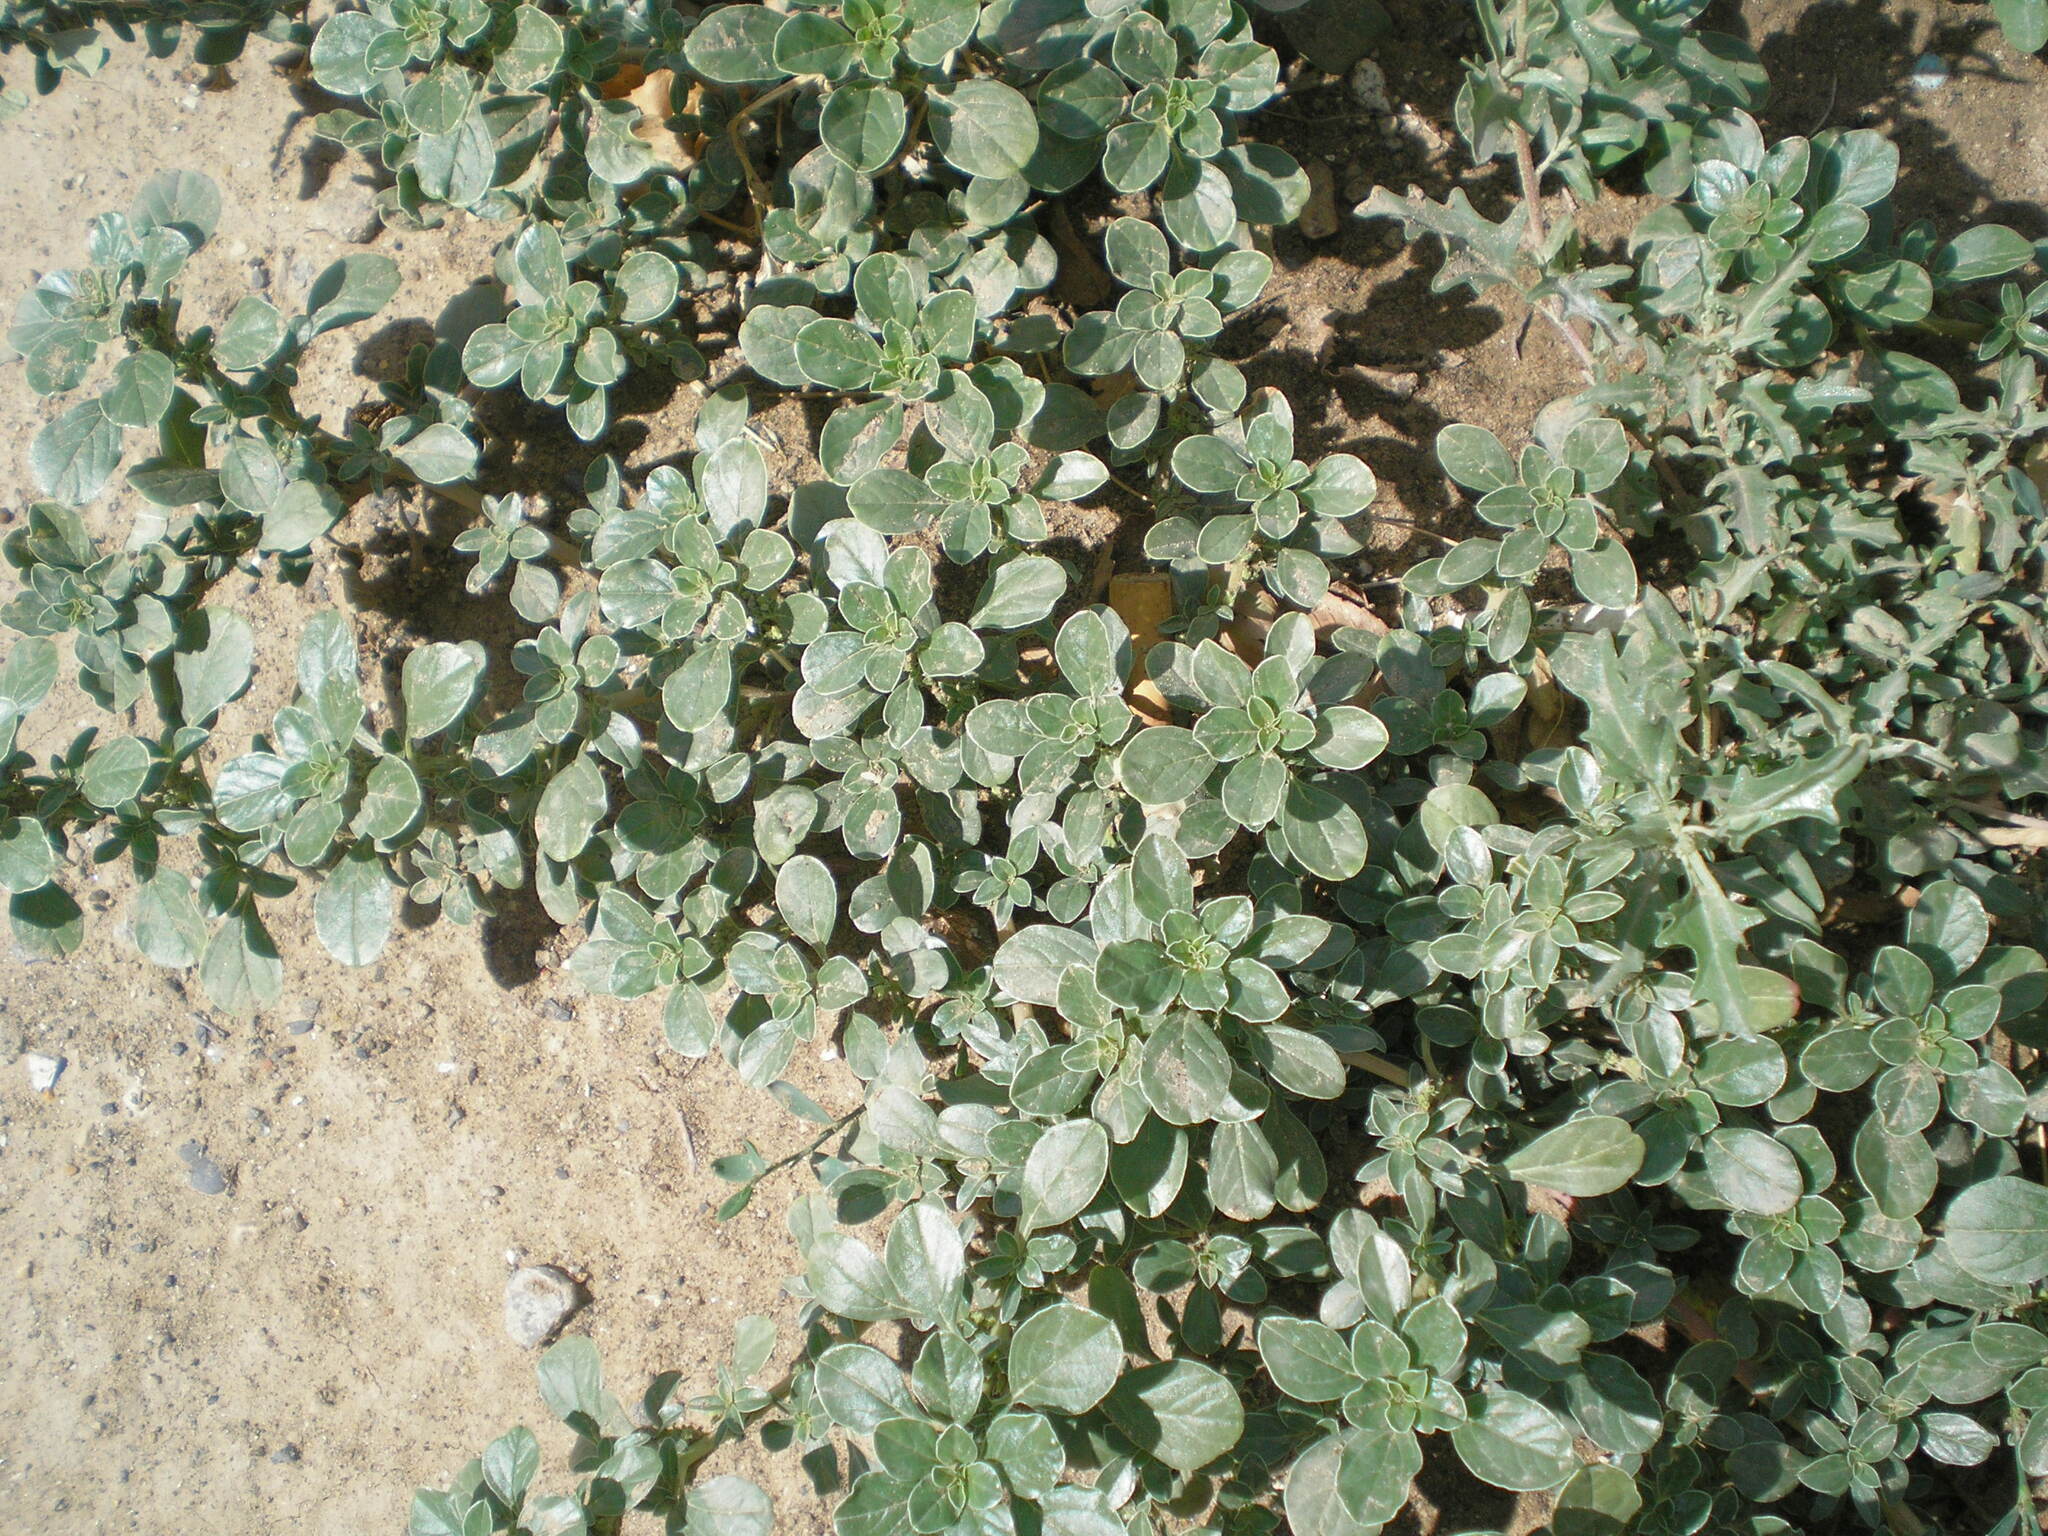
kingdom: Plantae
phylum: Tracheophyta
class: Magnoliopsida
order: Caryophyllales
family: Amaranthaceae
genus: Amaranthus
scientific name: Amaranthus blitoides
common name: Prostrate pigweed
